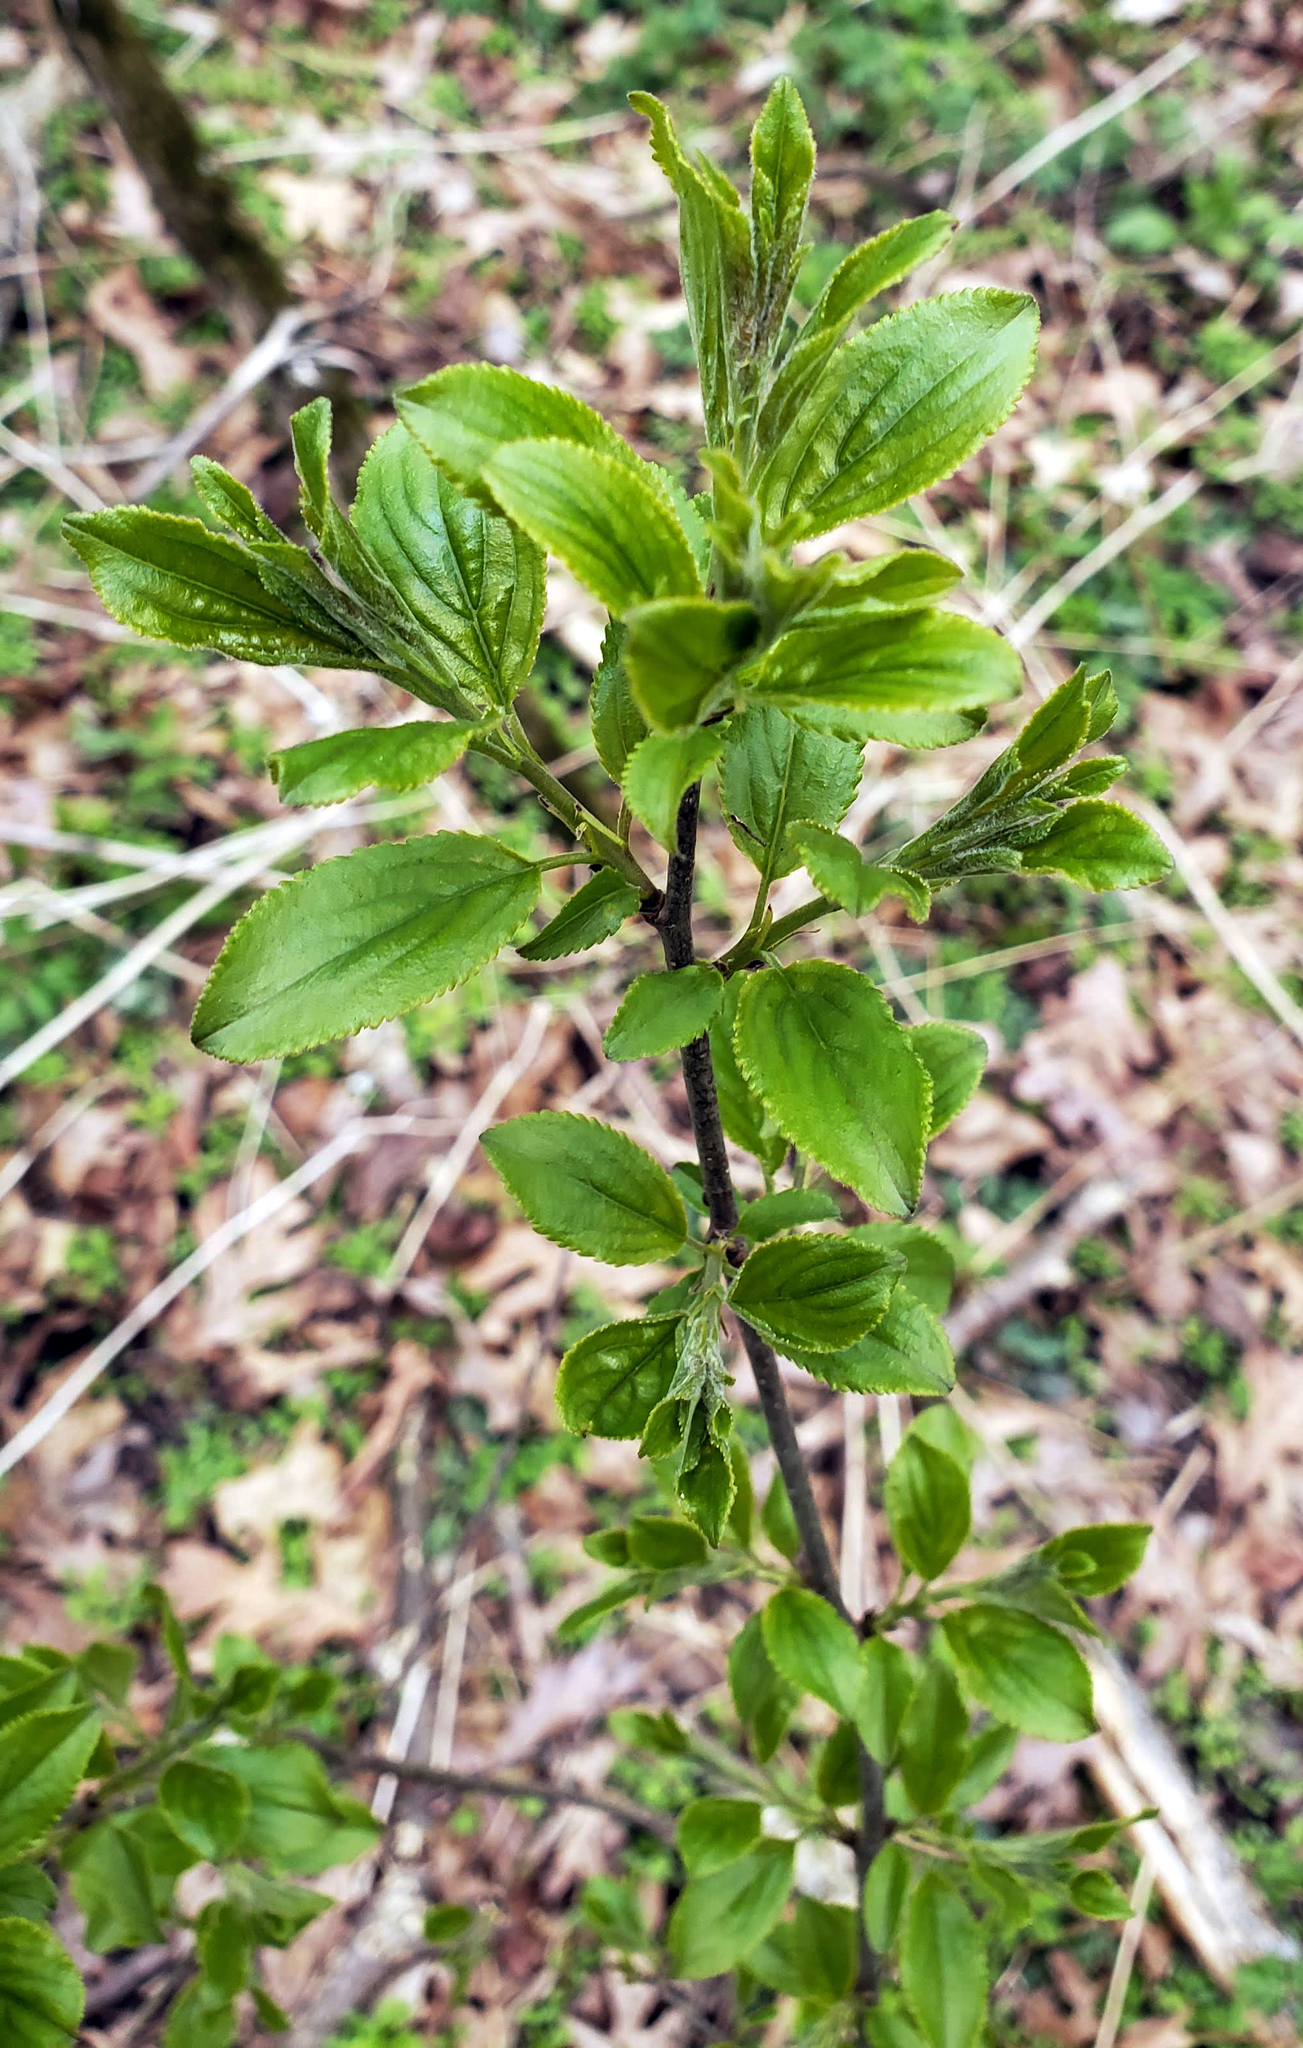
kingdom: Plantae
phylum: Tracheophyta
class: Magnoliopsida
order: Rosales
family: Rhamnaceae
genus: Rhamnus
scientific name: Rhamnus cathartica
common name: Common buckthorn
